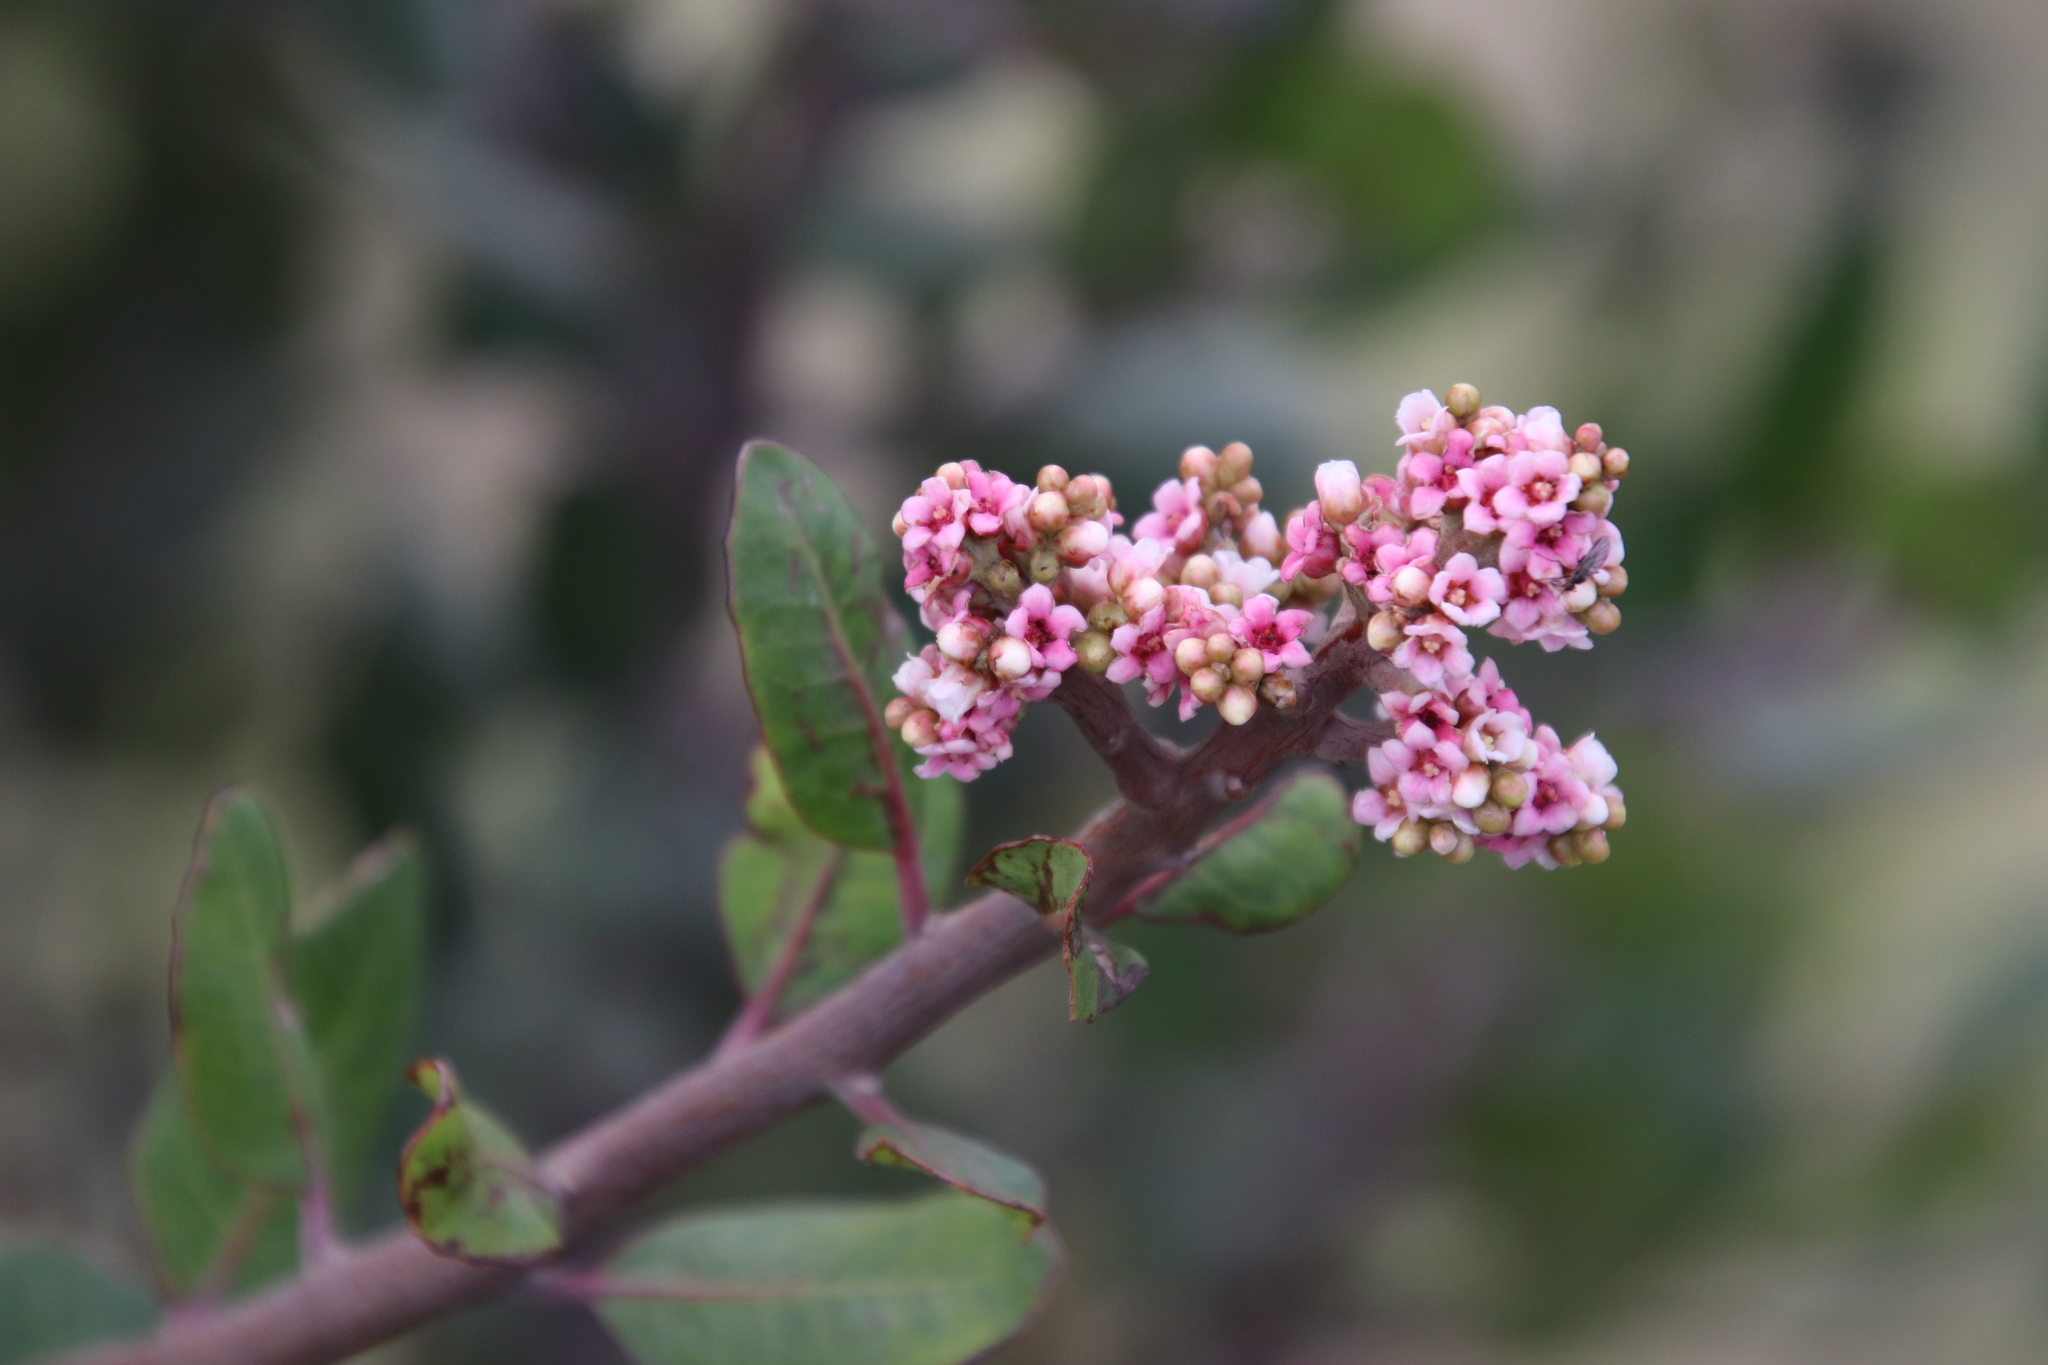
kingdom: Plantae
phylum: Tracheophyta
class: Magnoliopsida
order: Sapindales
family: Anacardiaceae
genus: Rhus
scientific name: Rhus integrifolia
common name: Lemonade sumac
